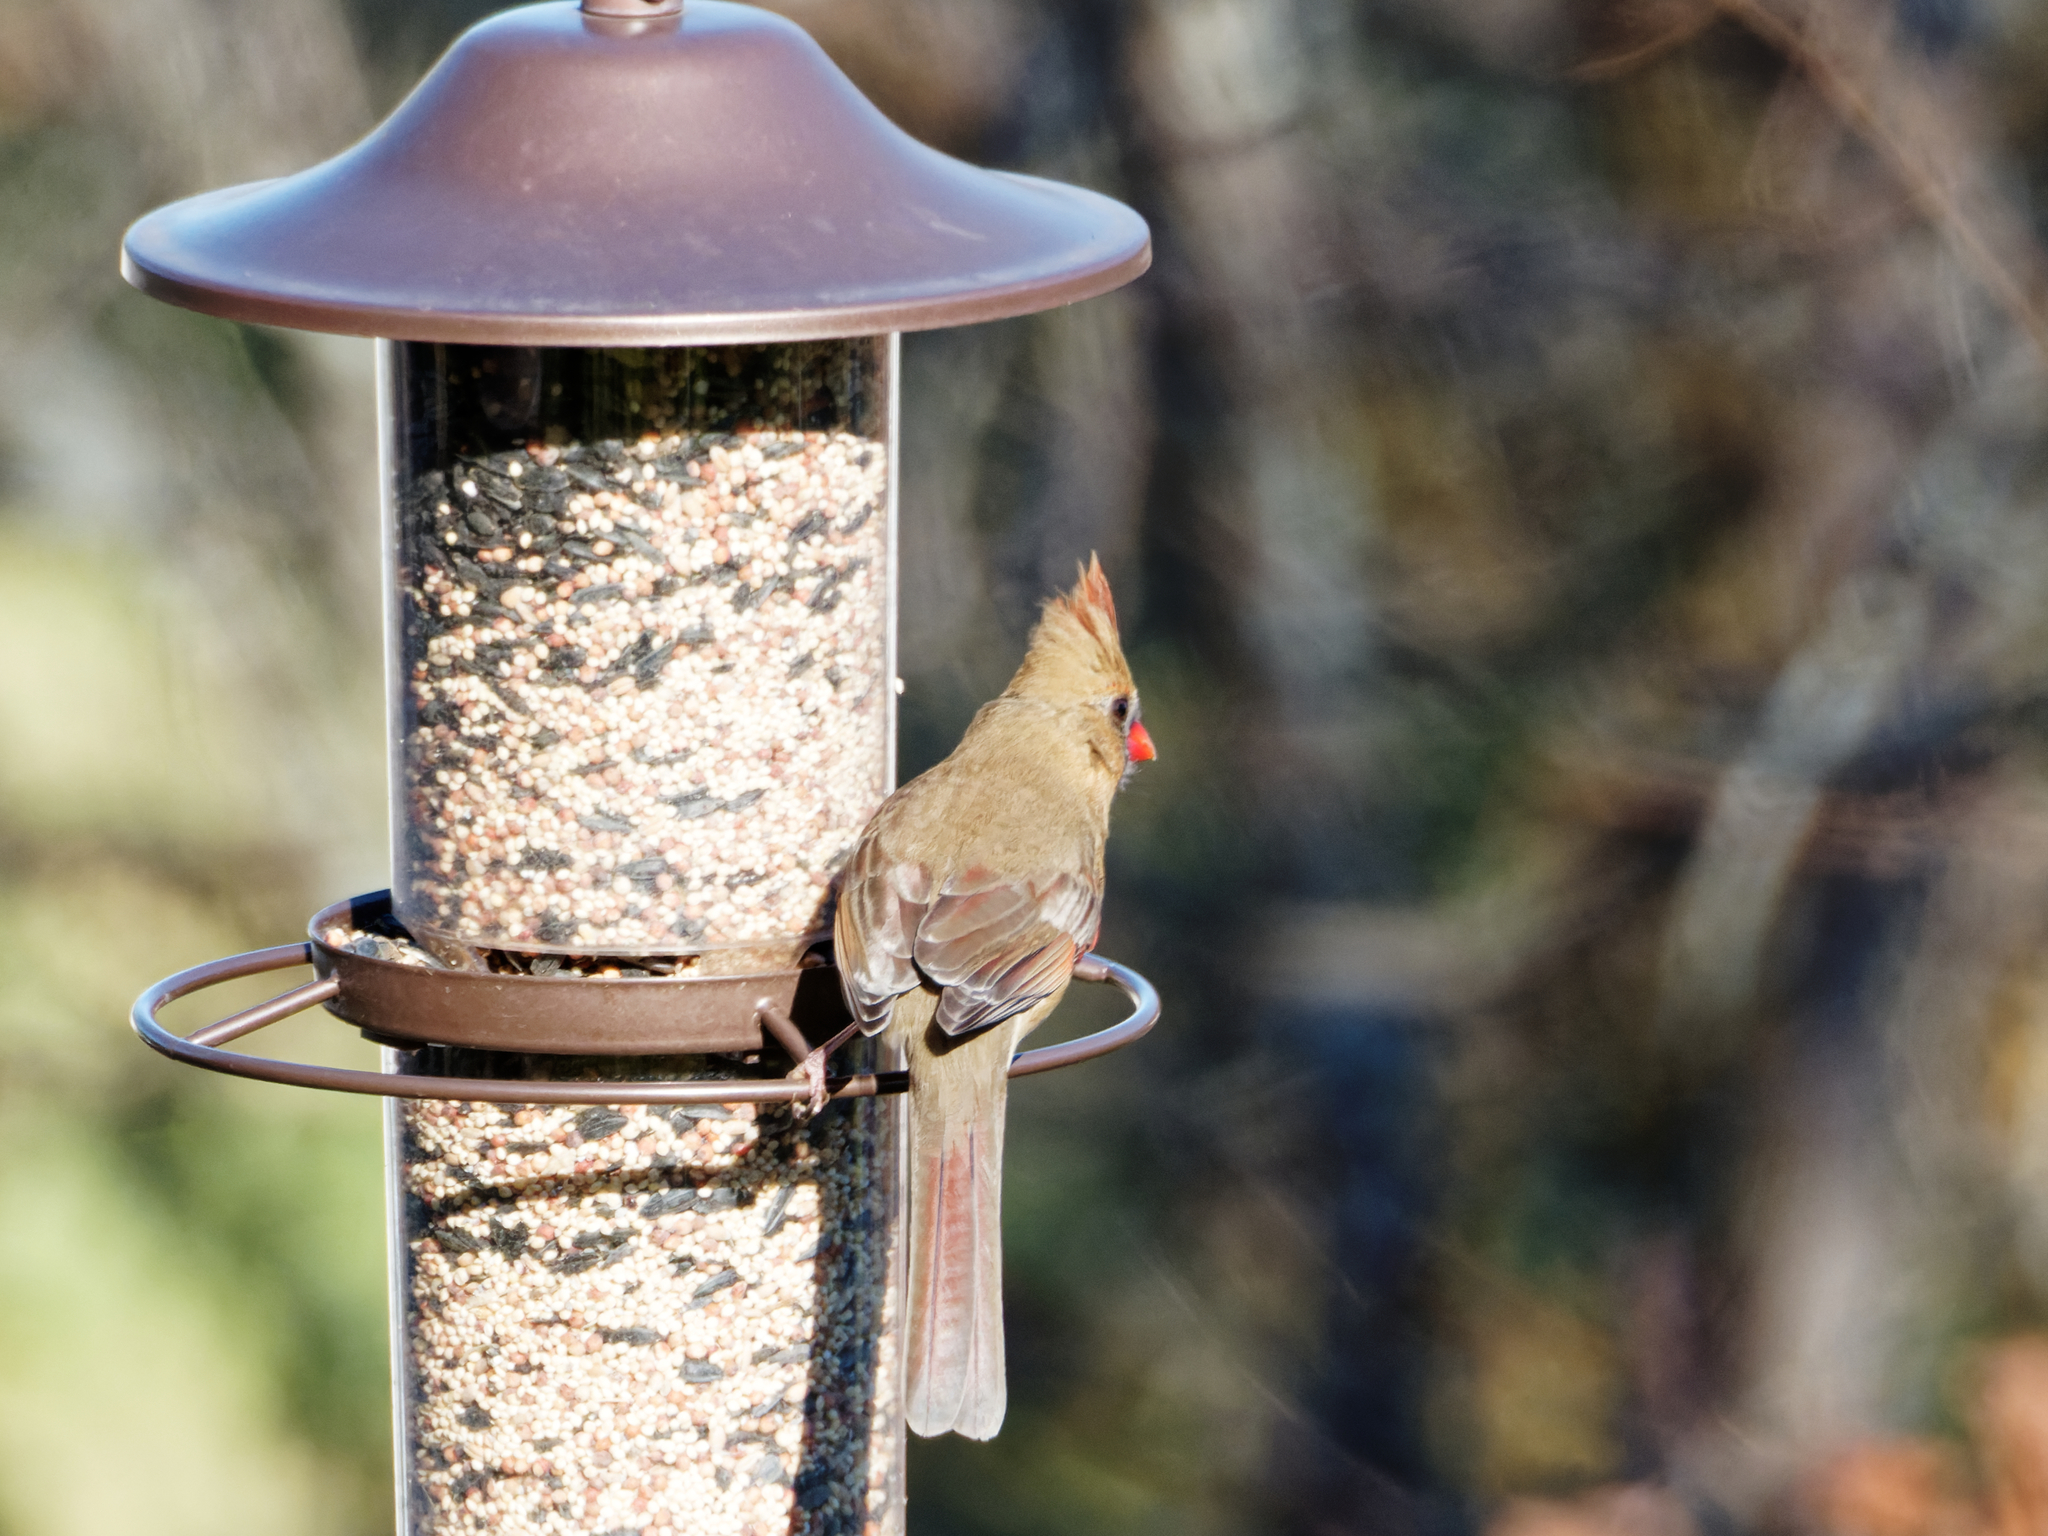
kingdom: Animalia
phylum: Chordata
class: Aves
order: Passeriformes
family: Cardinalidae
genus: Cardinalis
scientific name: Cardinalis cardinalis
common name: Northern cardinal
